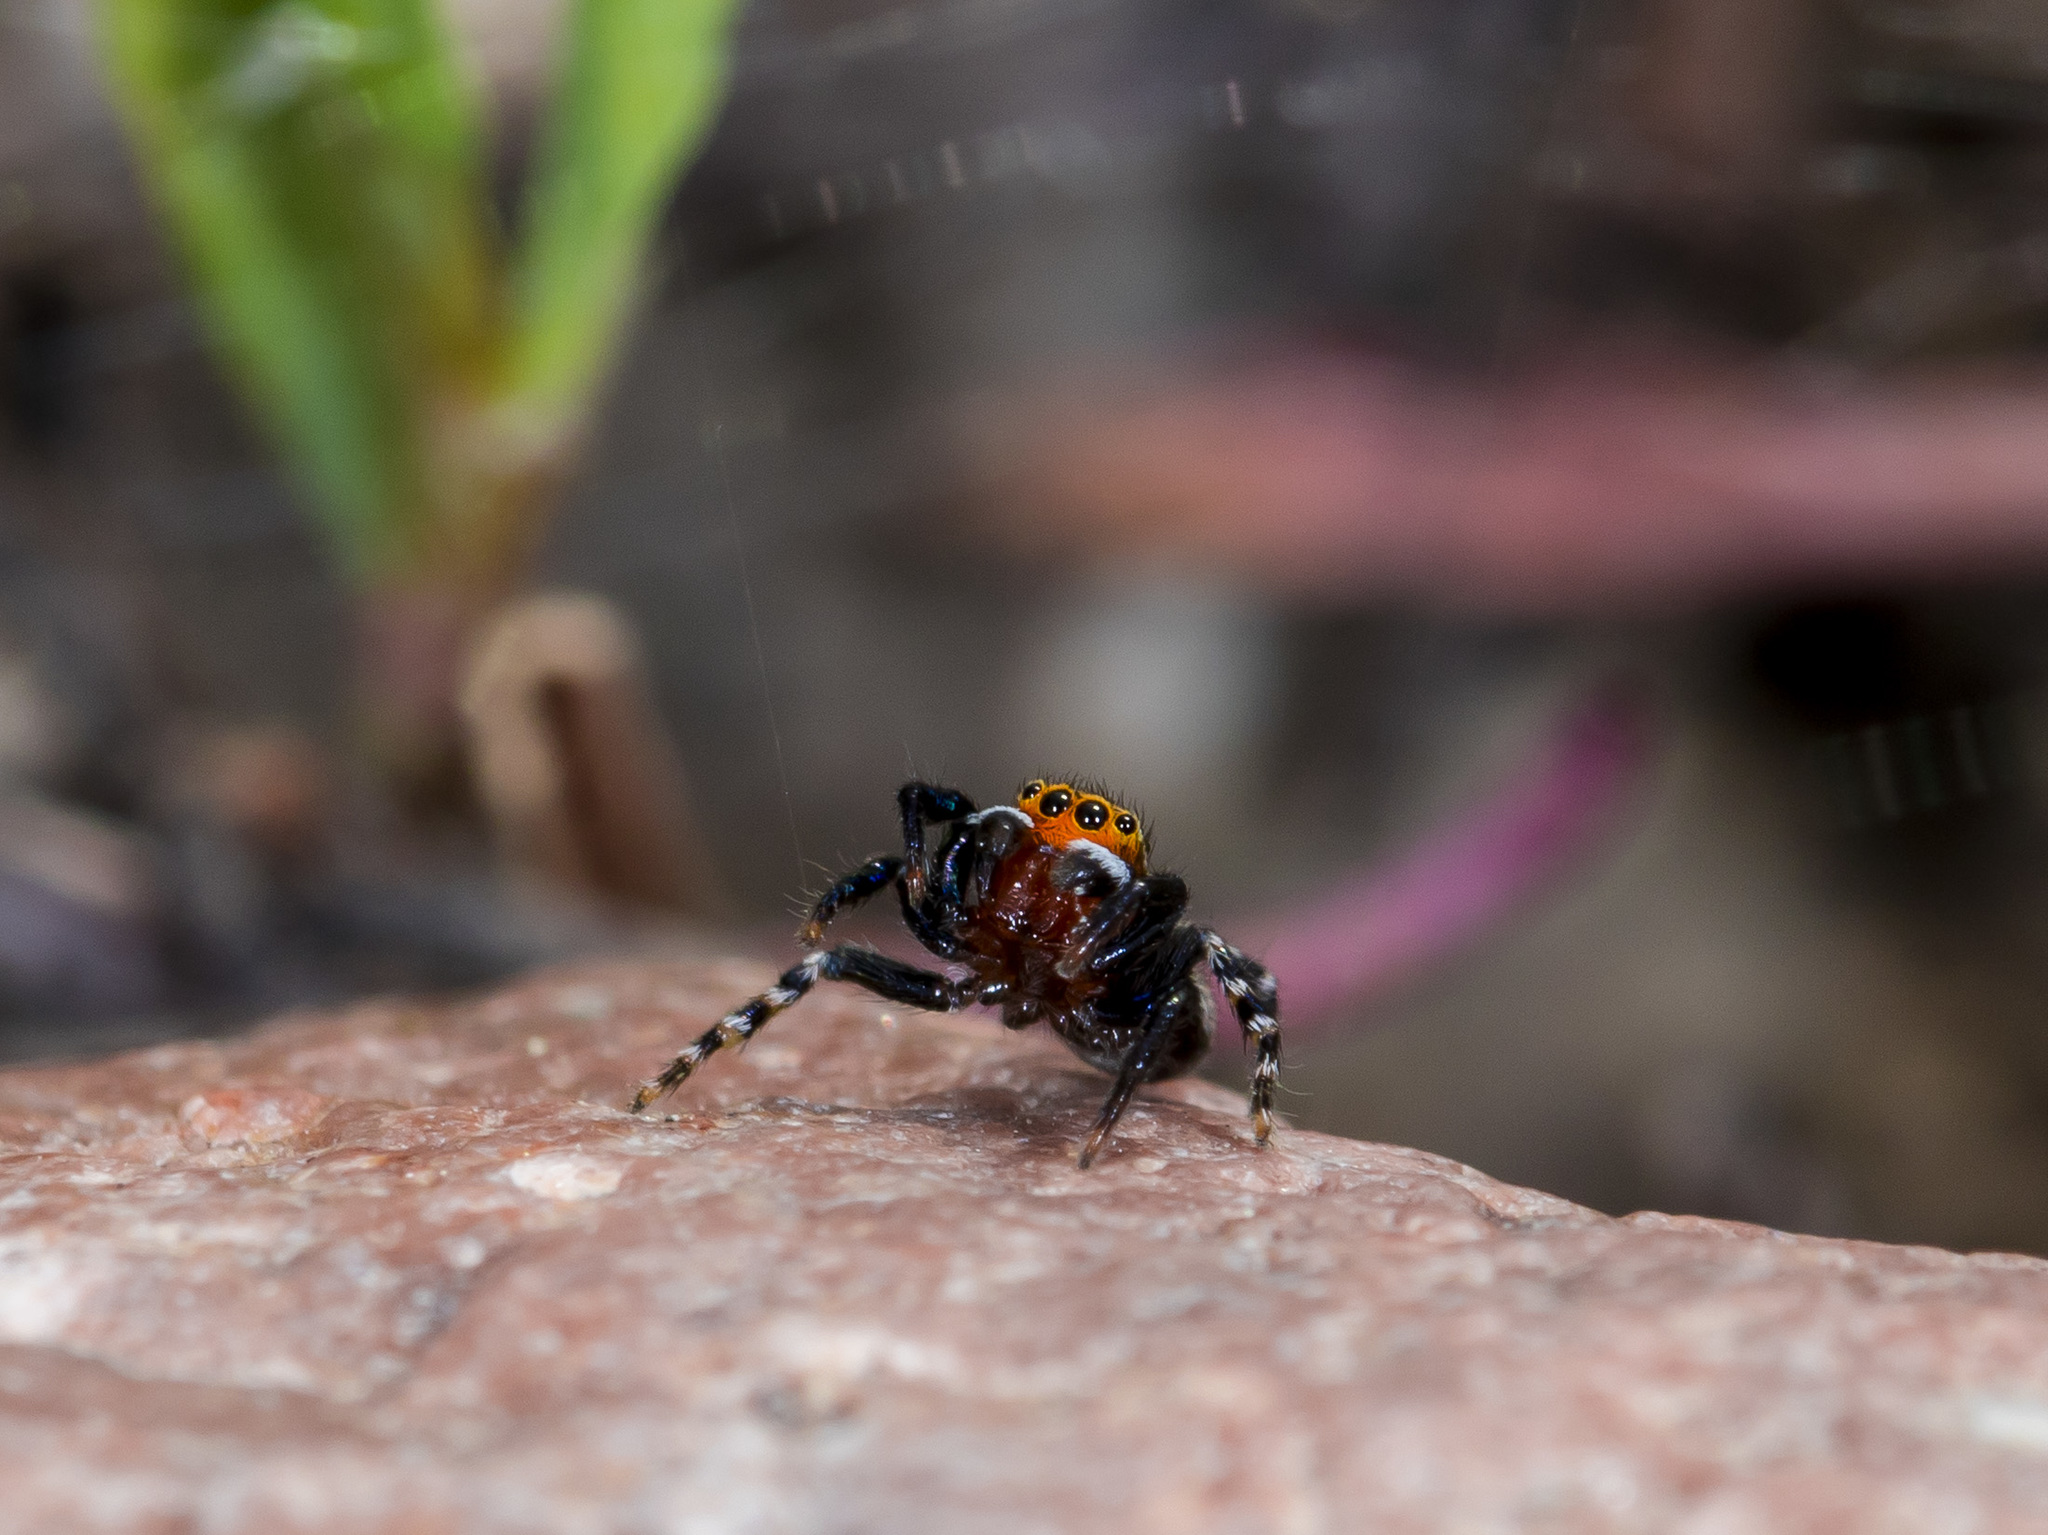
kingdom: Animalia
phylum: Arthropoda
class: Arachnida
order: Araneae
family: Salticidae
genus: Talavera
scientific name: Talavera petrensis
